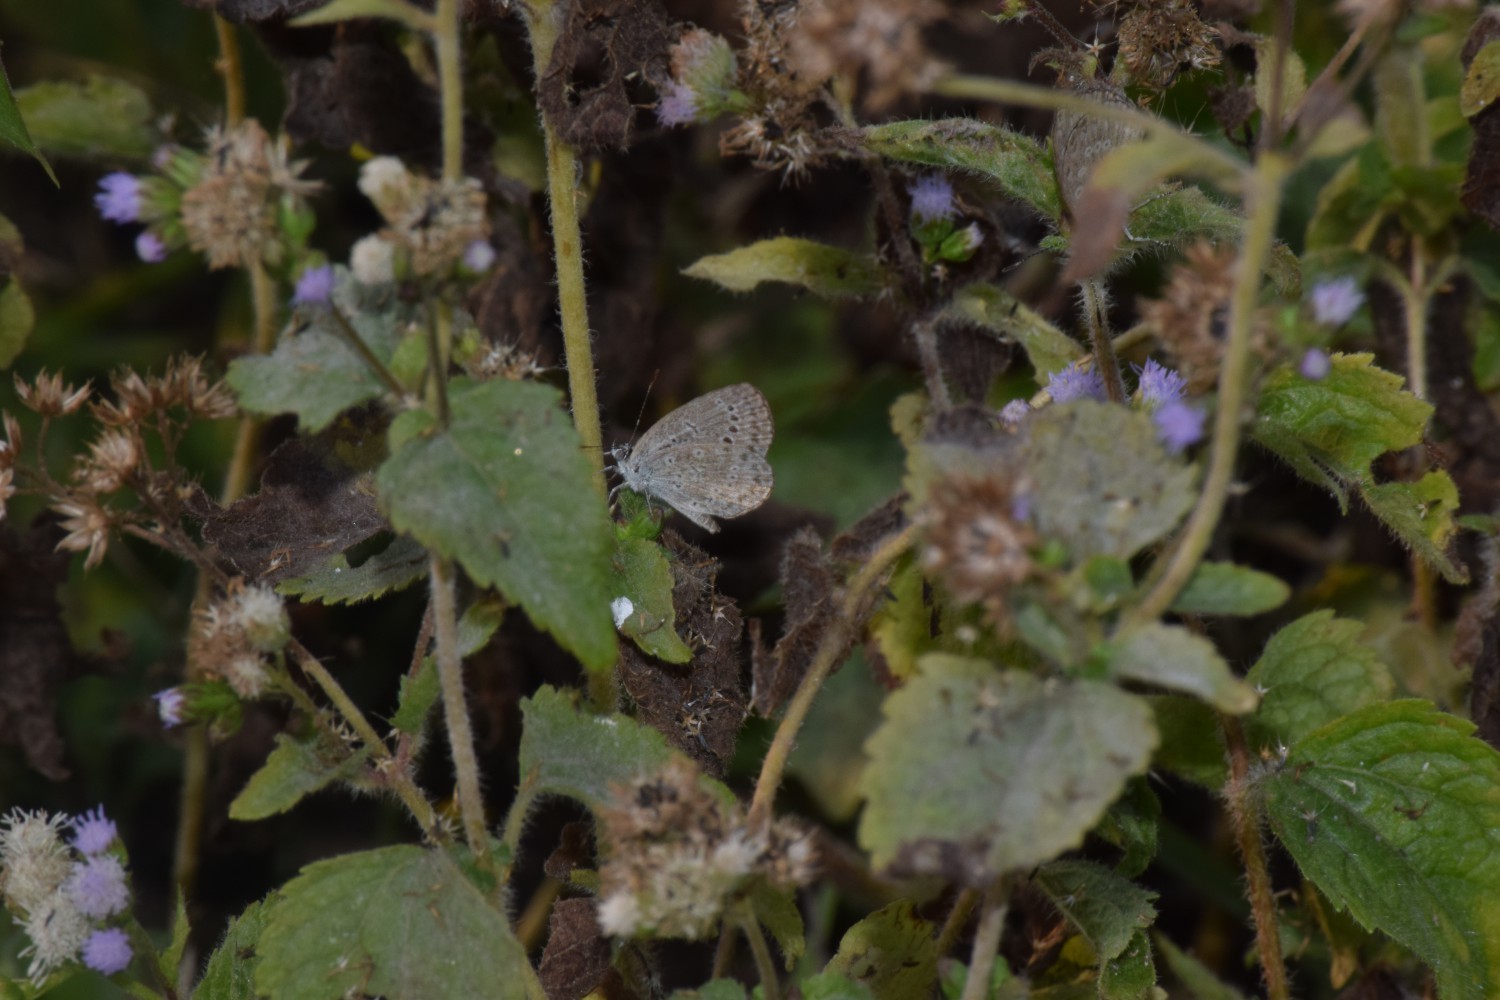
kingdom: Animalia
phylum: Arthropoda
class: Insecta
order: Lepidoptera
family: Lycaenidae
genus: Zizeeria
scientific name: Zizeeria karsandra
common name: Dark grass blue
